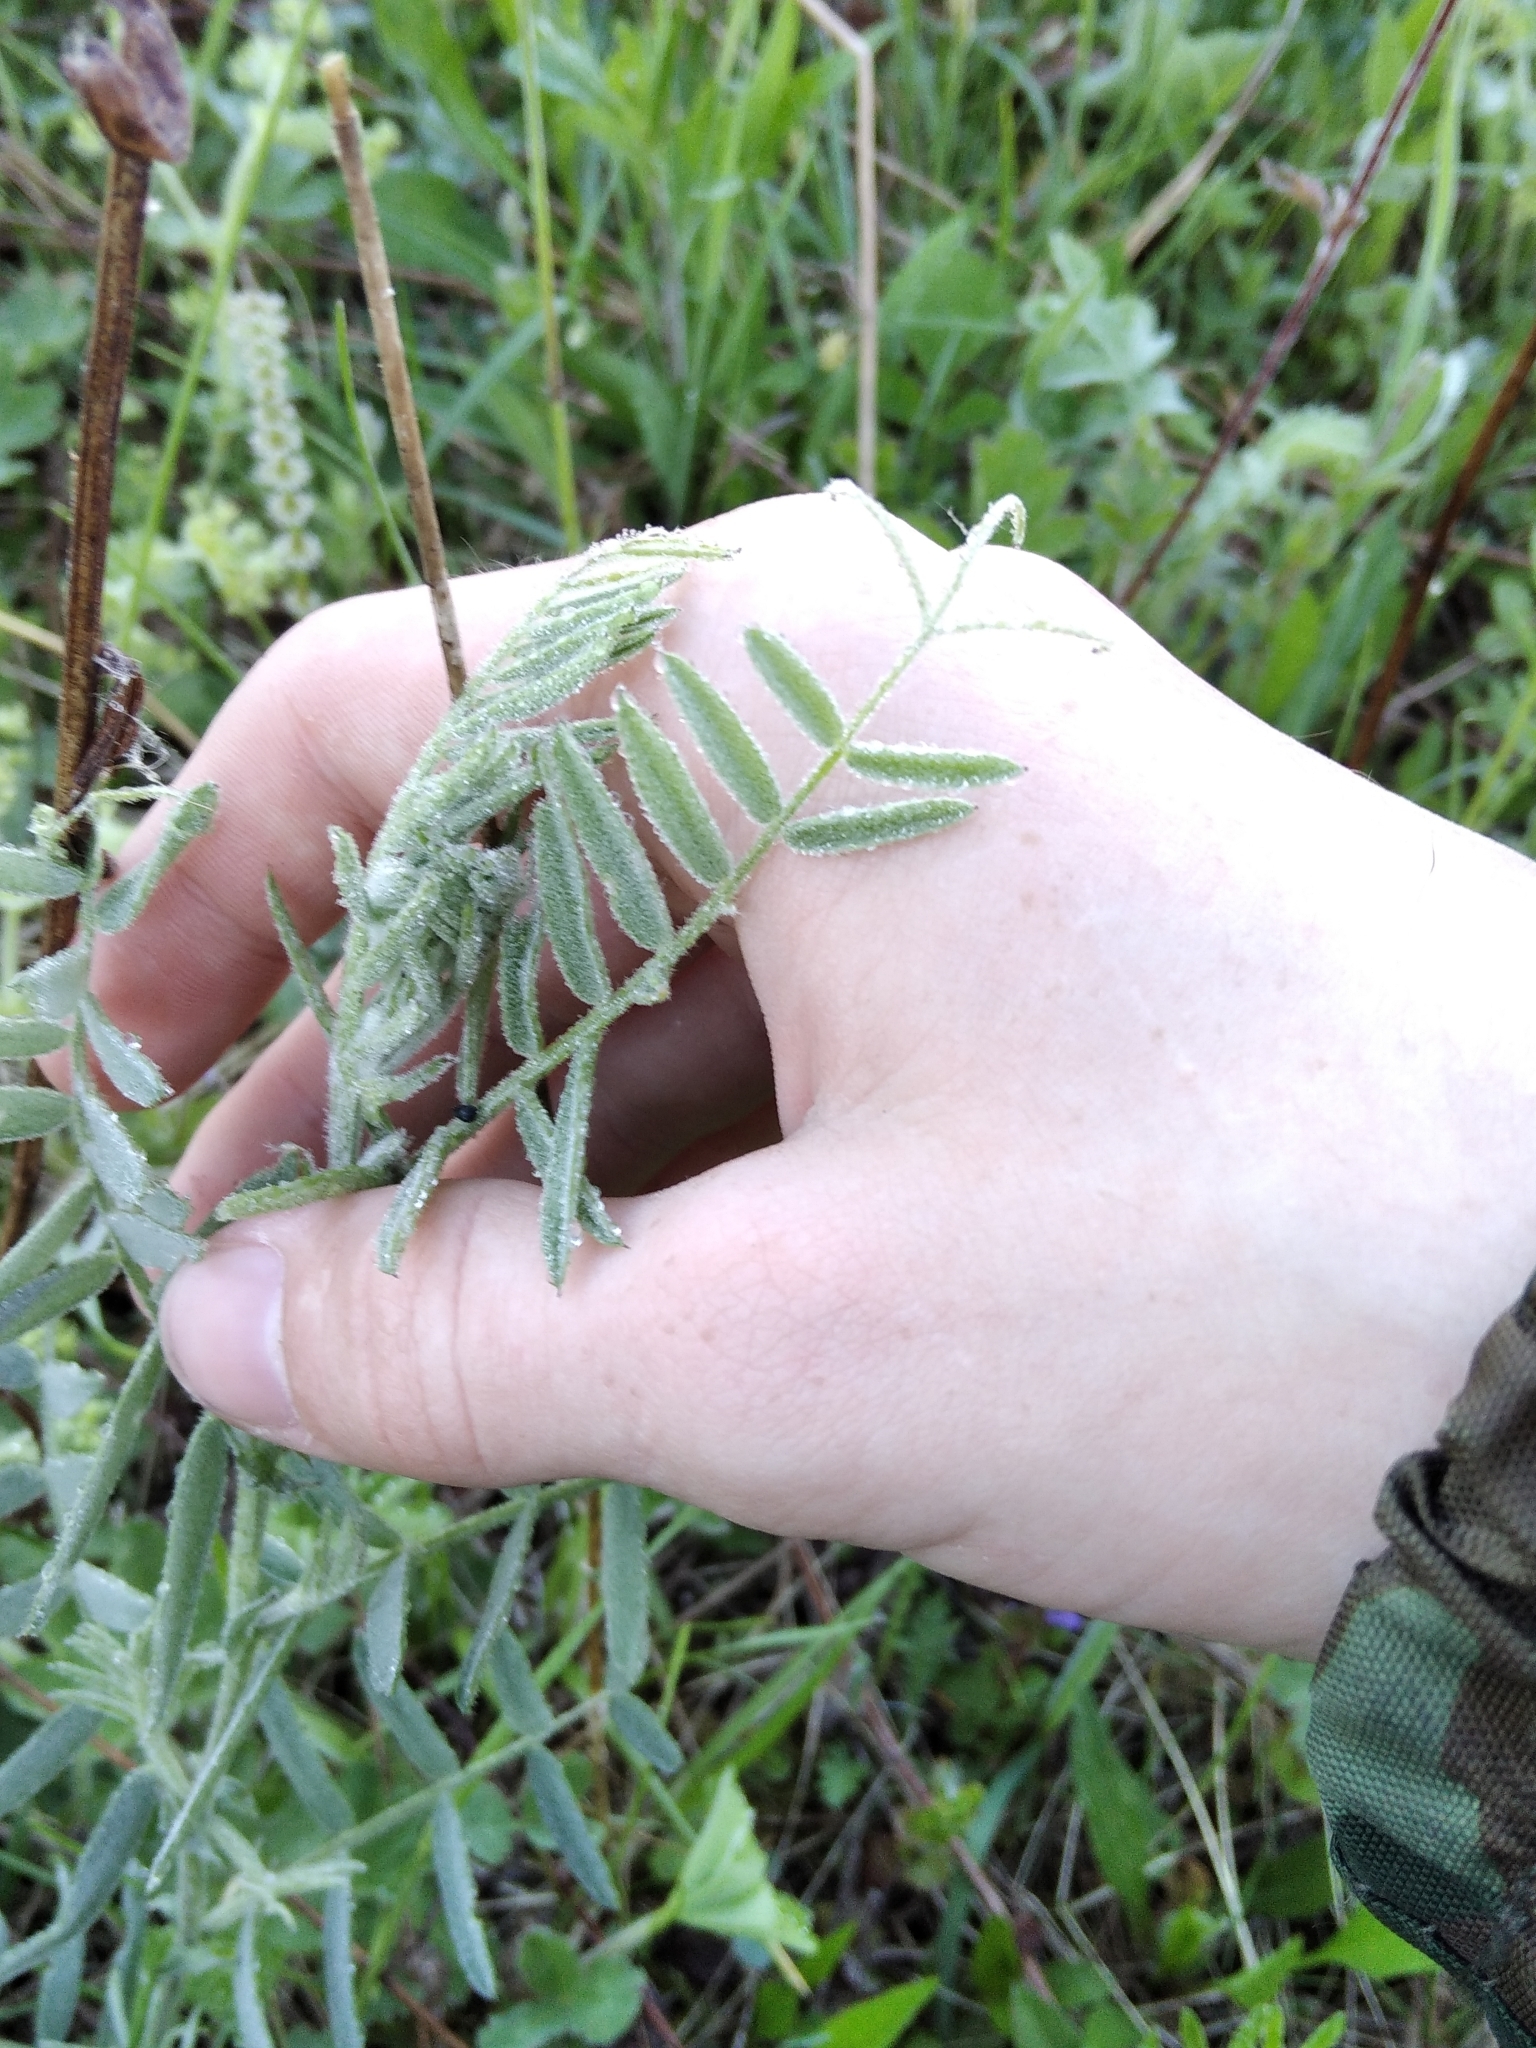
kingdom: Plantae
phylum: Tracheophyta
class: Magnoliopsida
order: Fabales
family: Fabaceae
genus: Vicia
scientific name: Vicia cracca
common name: Bird vetch
